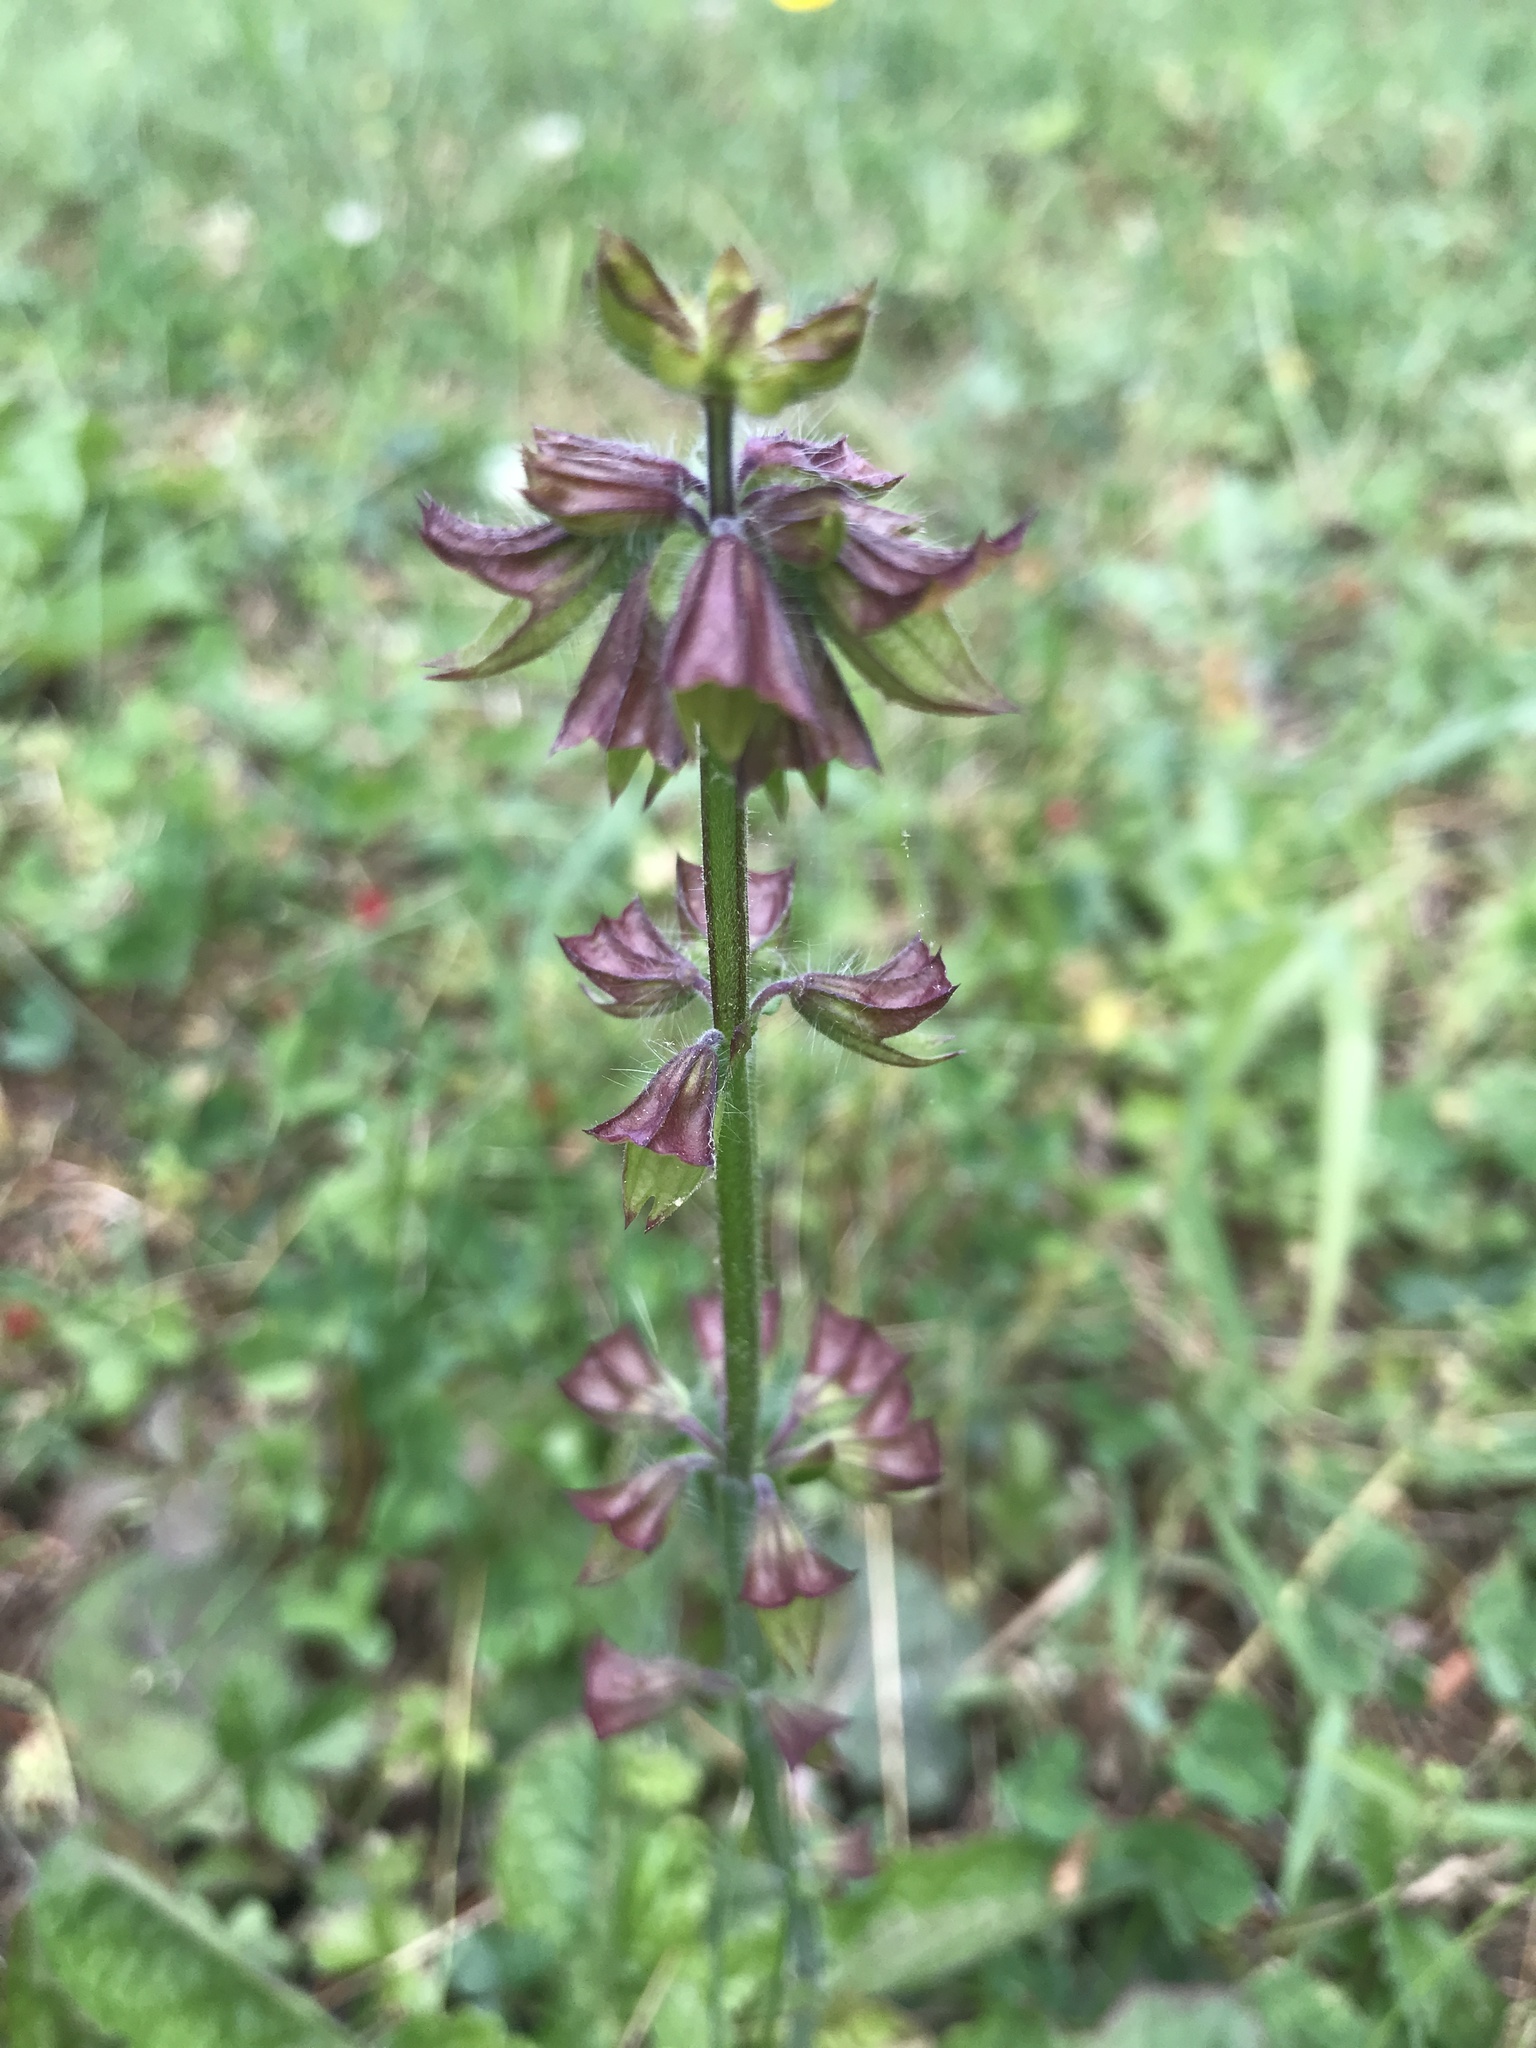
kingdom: Plantae
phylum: Tracheophyta
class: Magnoliopsida
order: Lamiales
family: Lamiaceae
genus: Salvia
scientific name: Salvia lyrata
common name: Cancerweed
